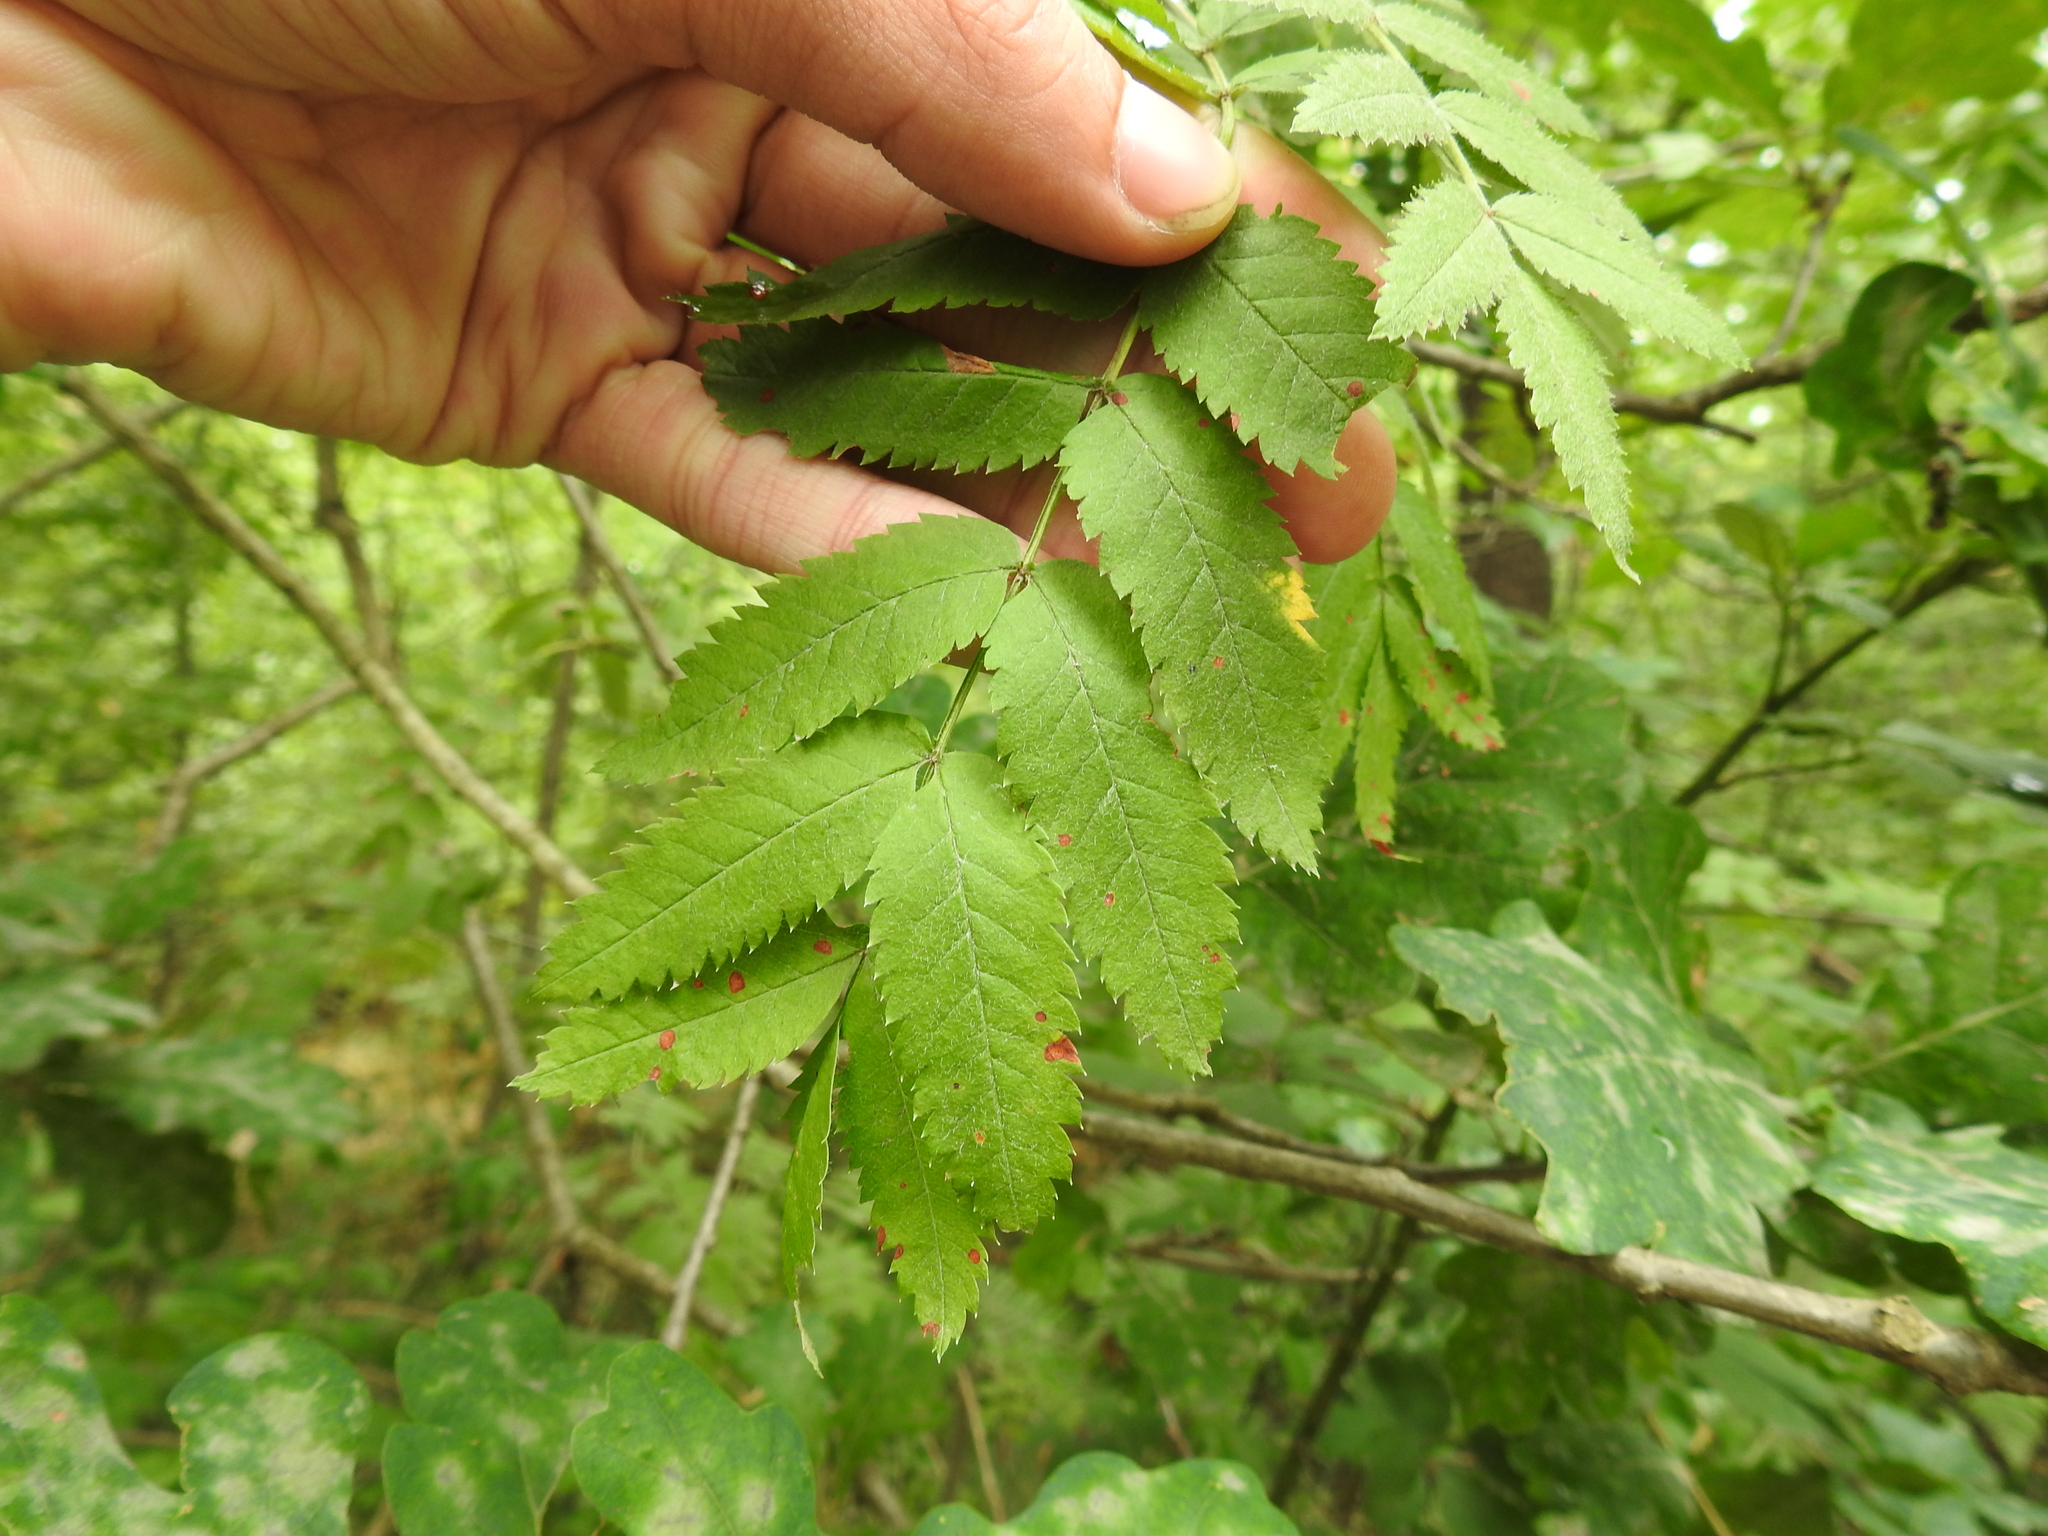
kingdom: Plantae
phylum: Tracheophyta
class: Magnoliopsida
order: Rosales
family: Rosaceae
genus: Sorbus
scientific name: Sorbus aucuparia
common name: Rowan
